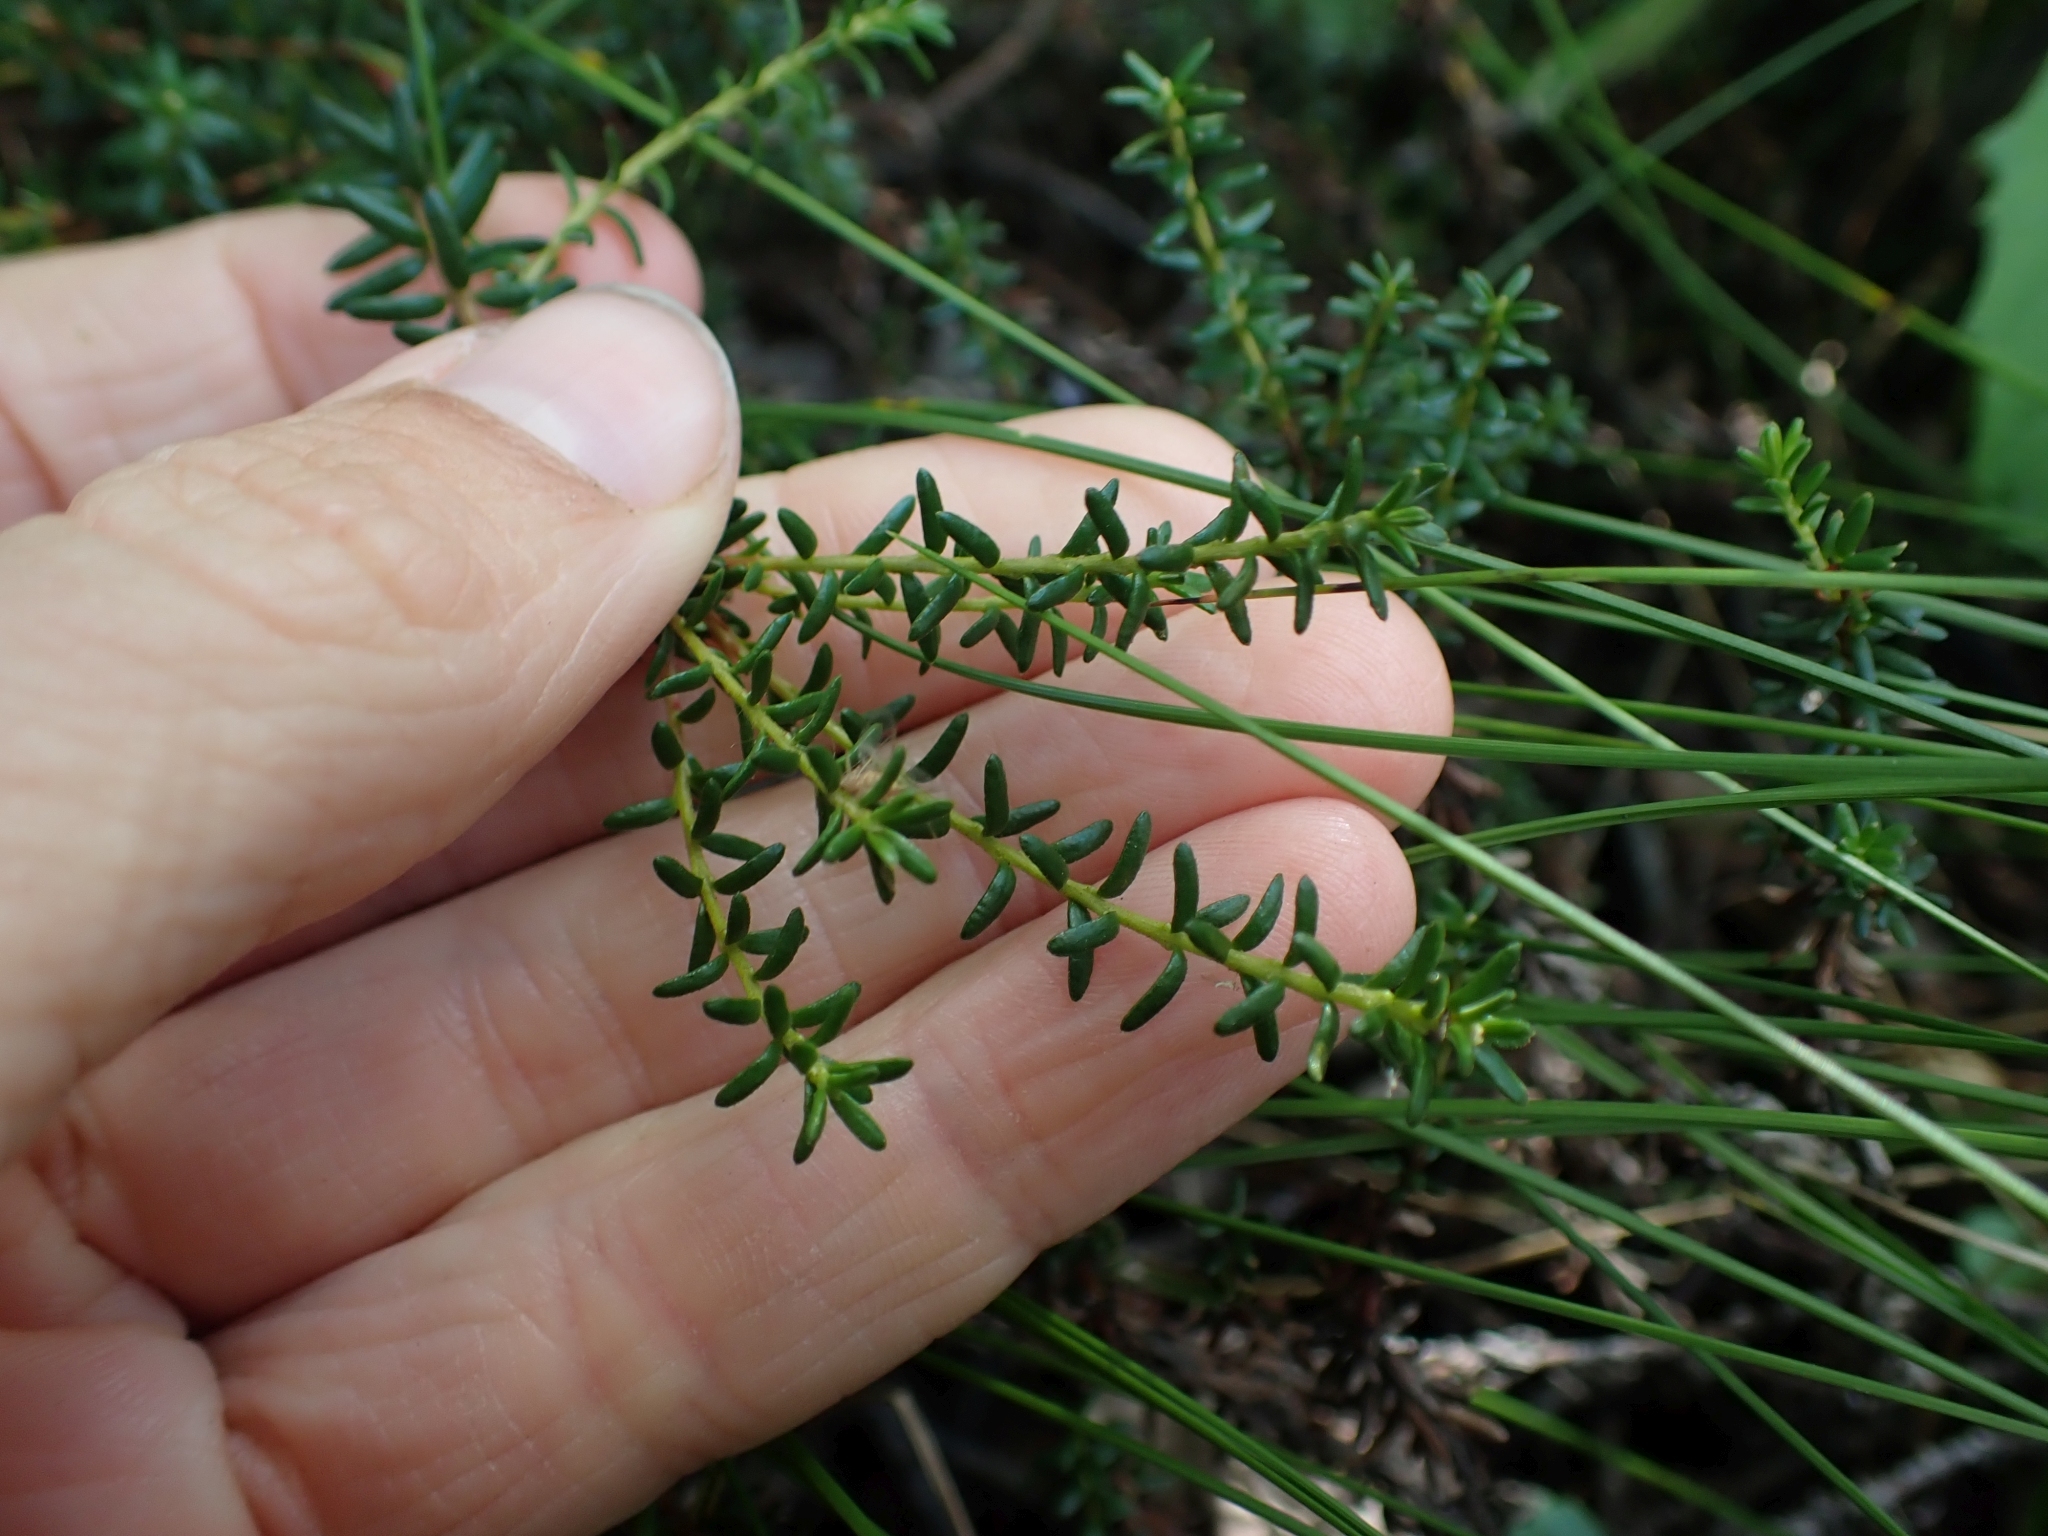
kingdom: Plantae
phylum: Tracheophyta
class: Magnoliopsida
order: Ericales
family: Ericaceae
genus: Empetrum
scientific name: Empetrum nigrum
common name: Black crowberry
